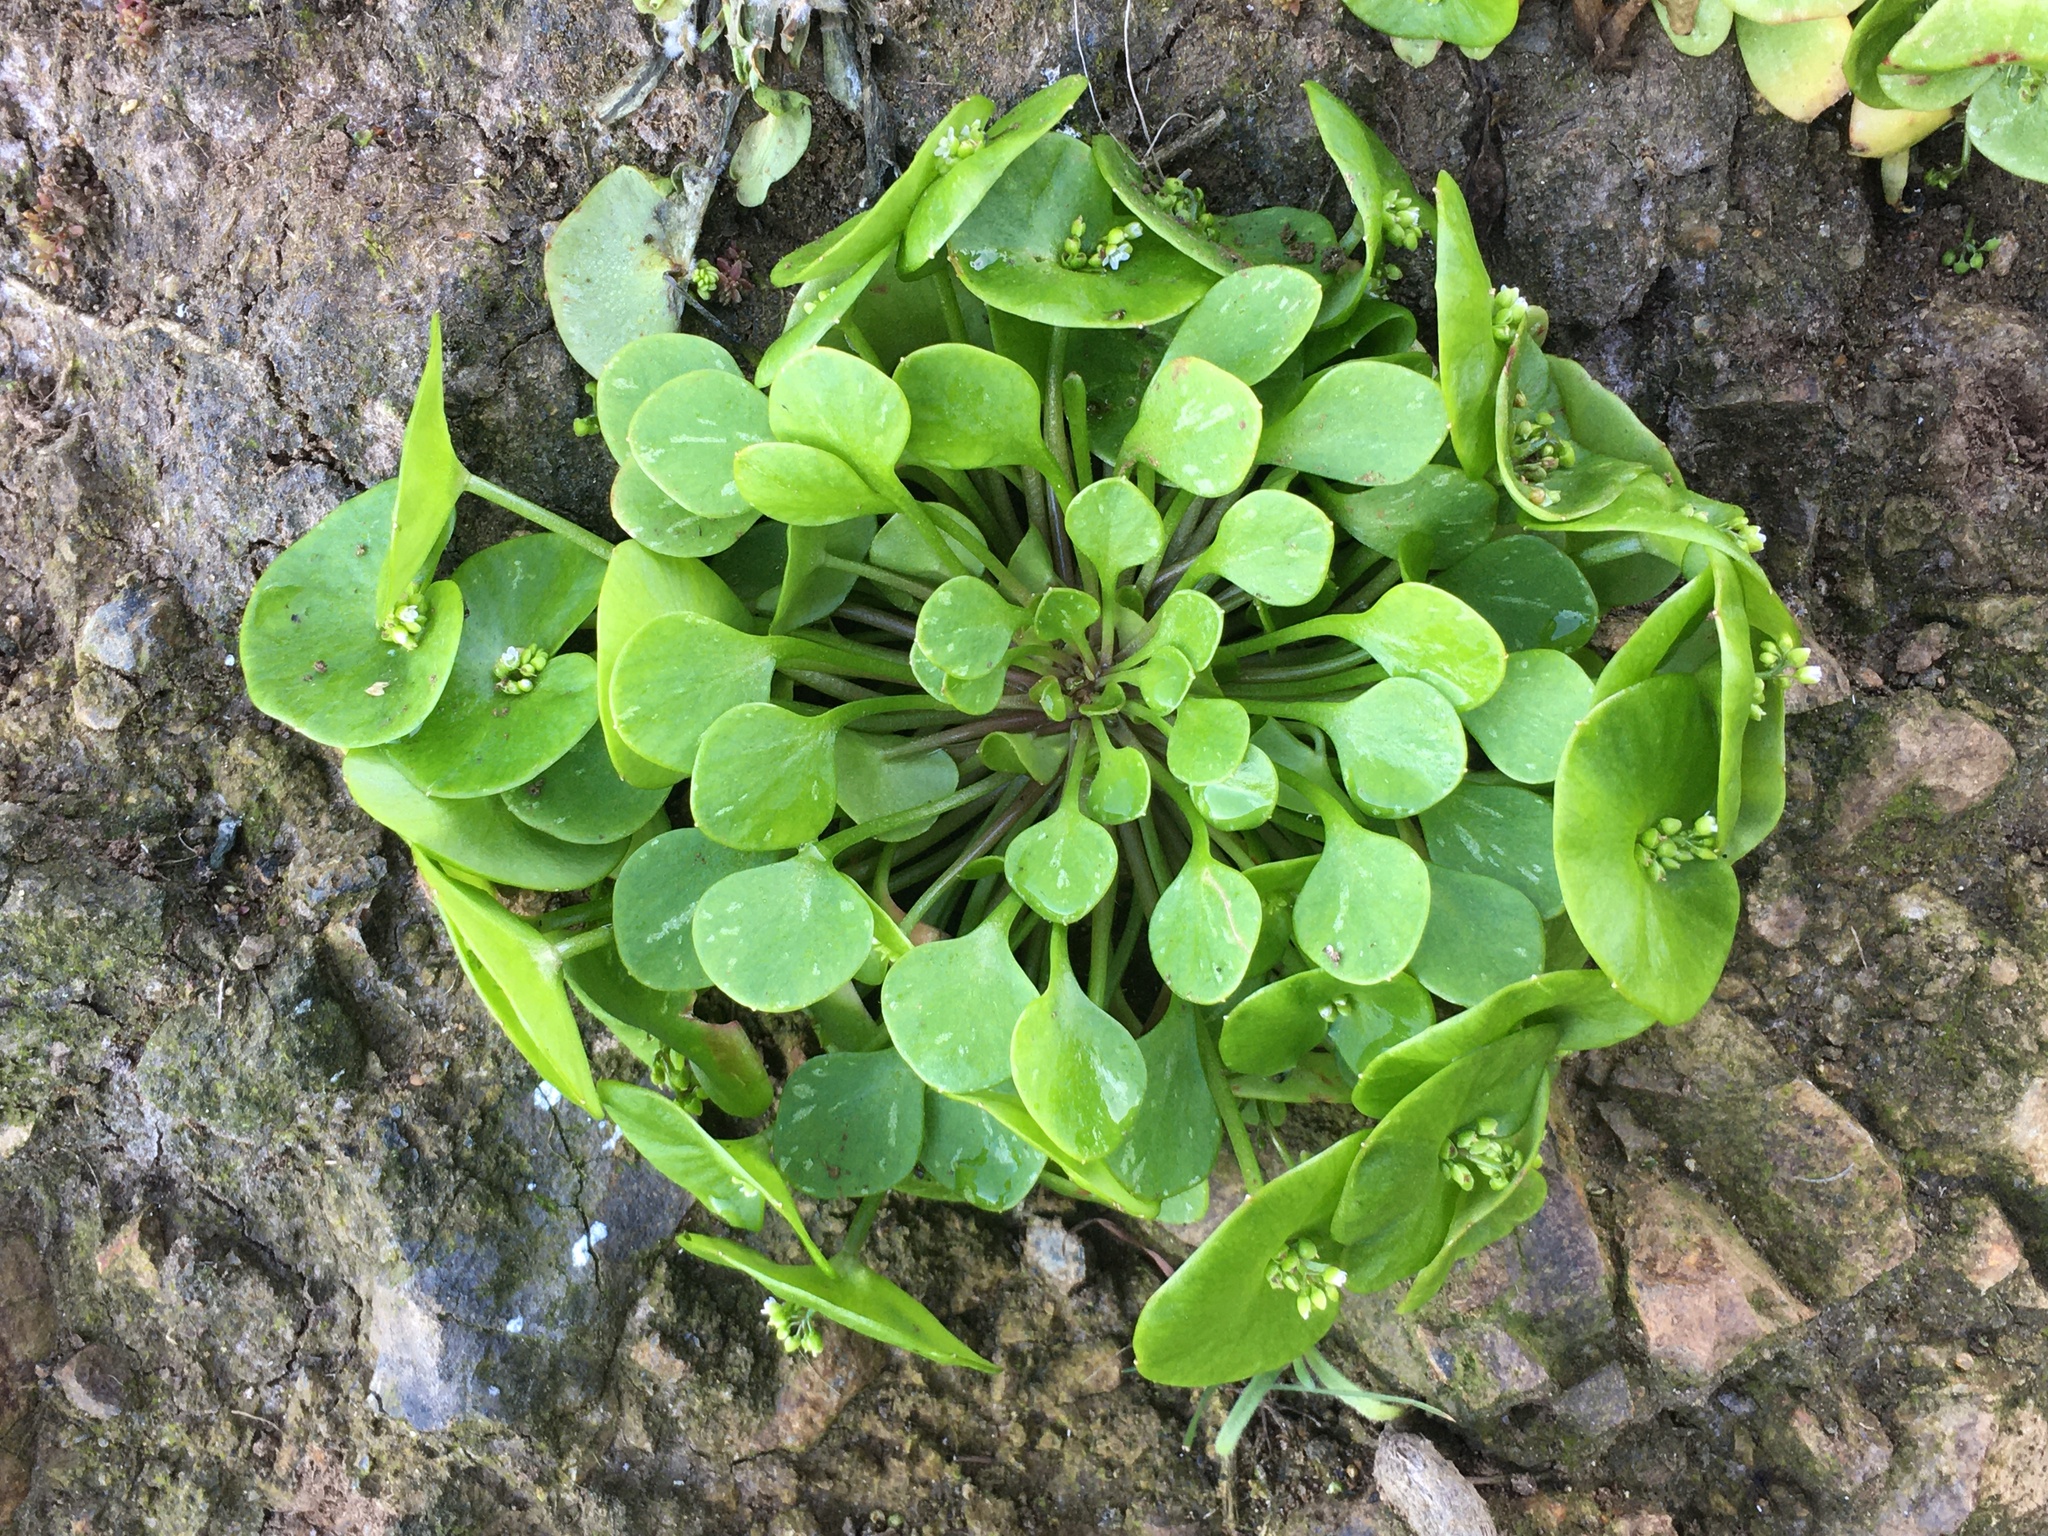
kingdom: Plantae
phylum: Tracheophyta
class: Magnoliopsida
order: Caryophyllales
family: Montiaceae
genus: Claytonia
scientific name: Claytonia perfoliata
